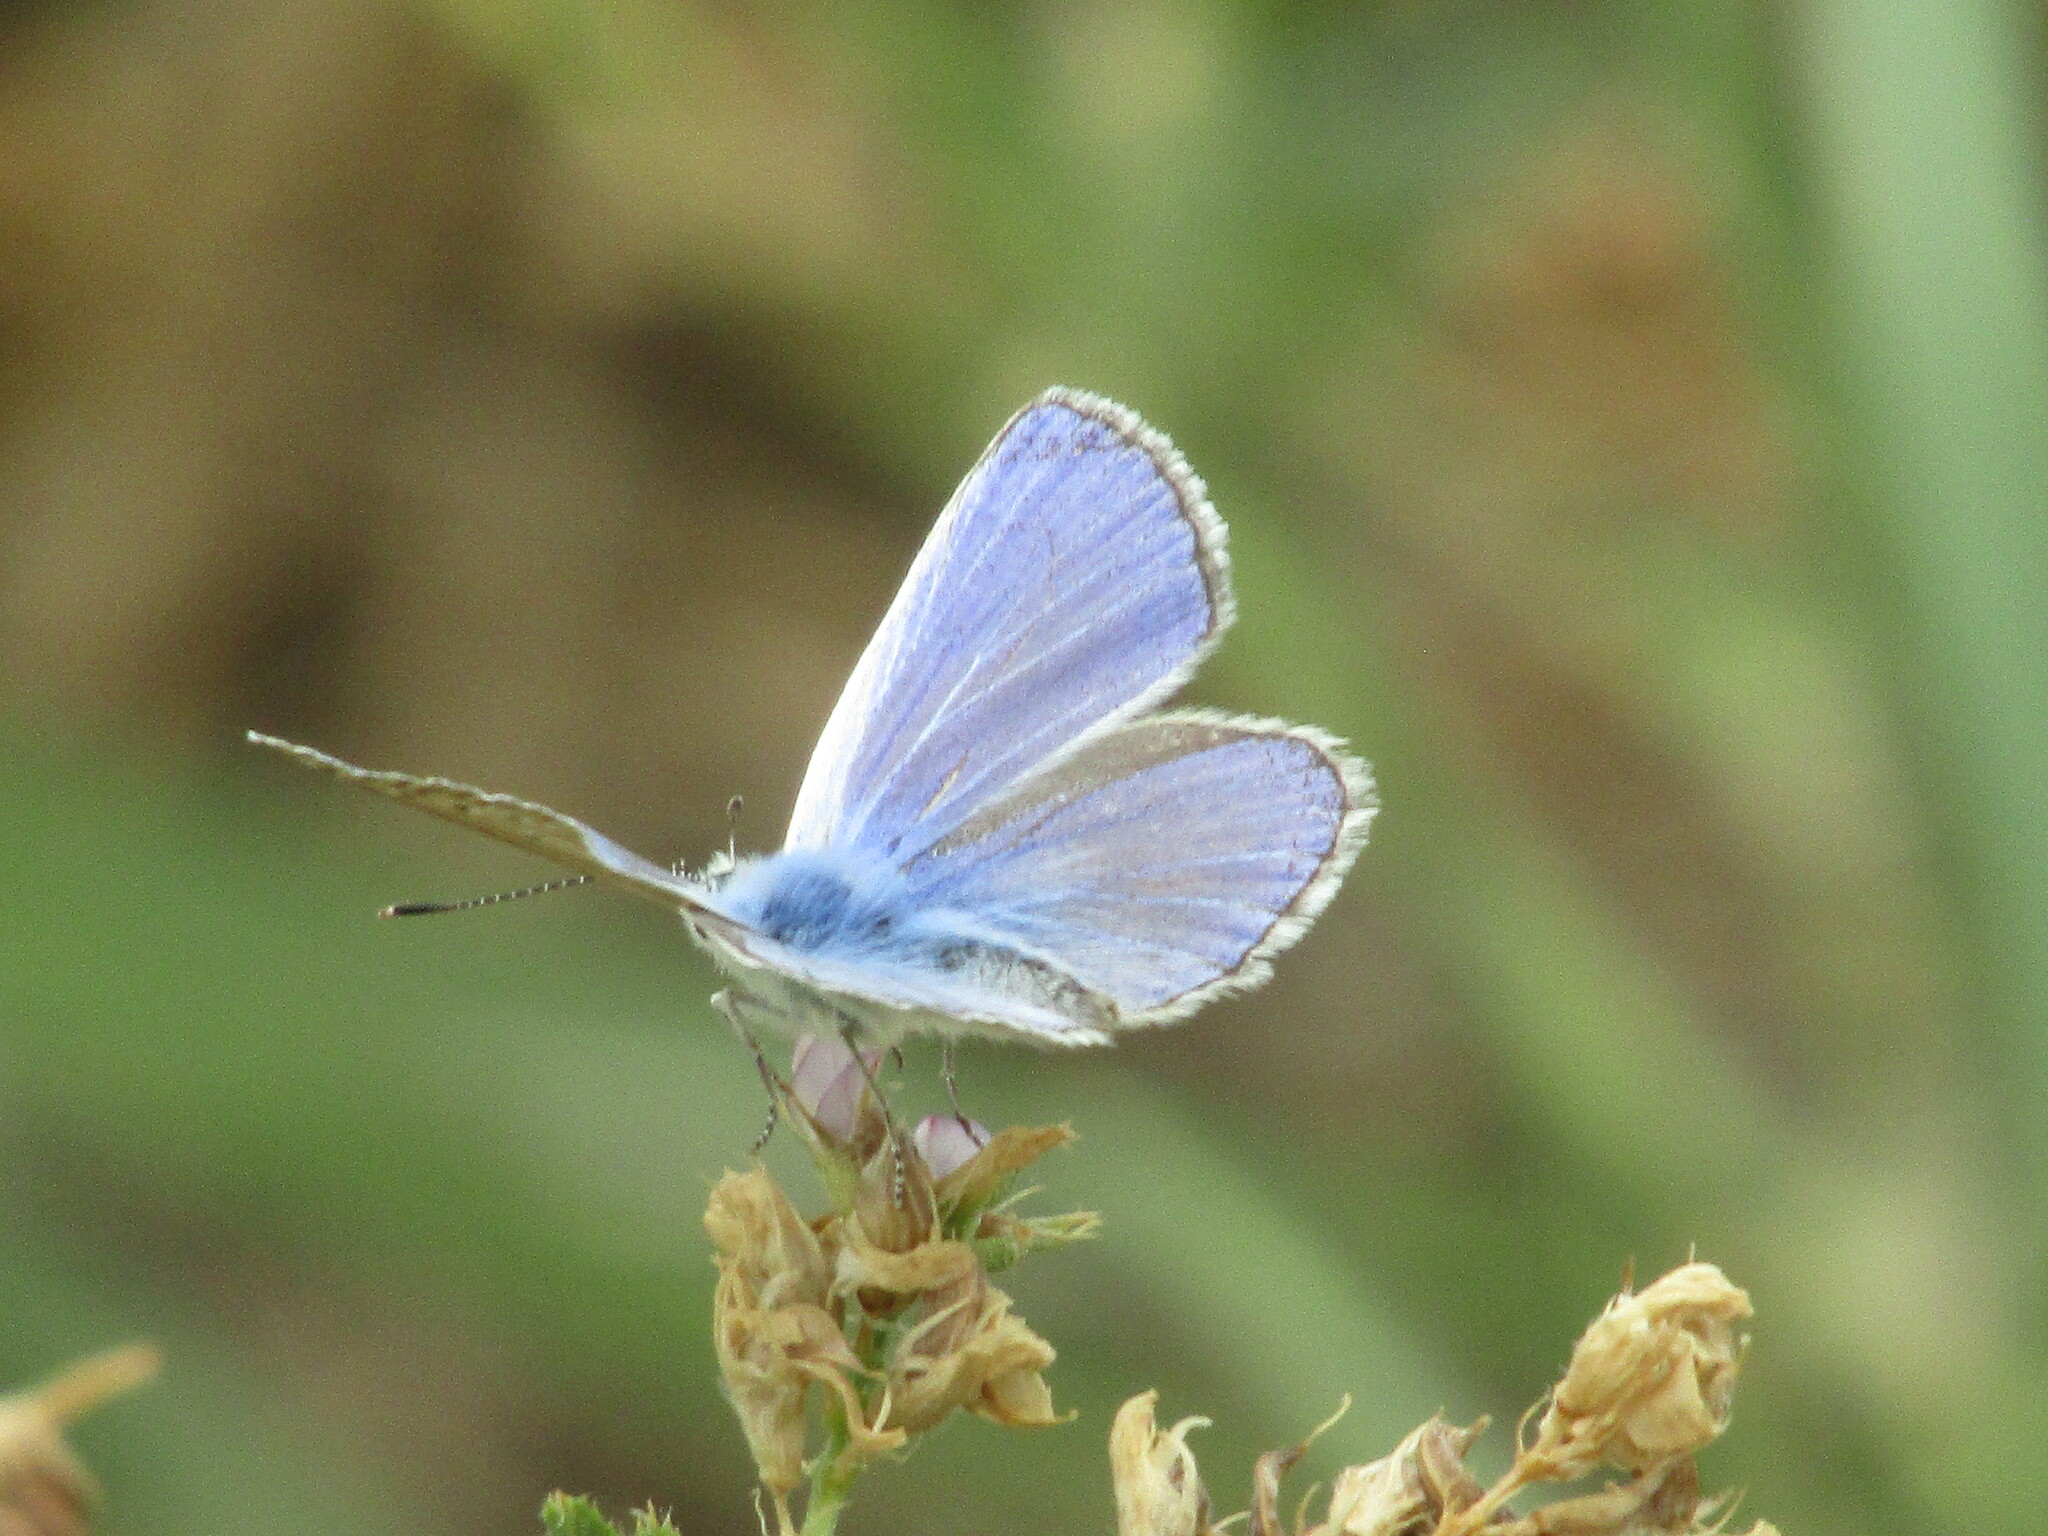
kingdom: Animalia
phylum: Arthropoda
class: Insecta
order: Lepidoptera
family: Lycaenidae
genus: Polyommatus
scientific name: Polyommatus icarus
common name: Common blue
